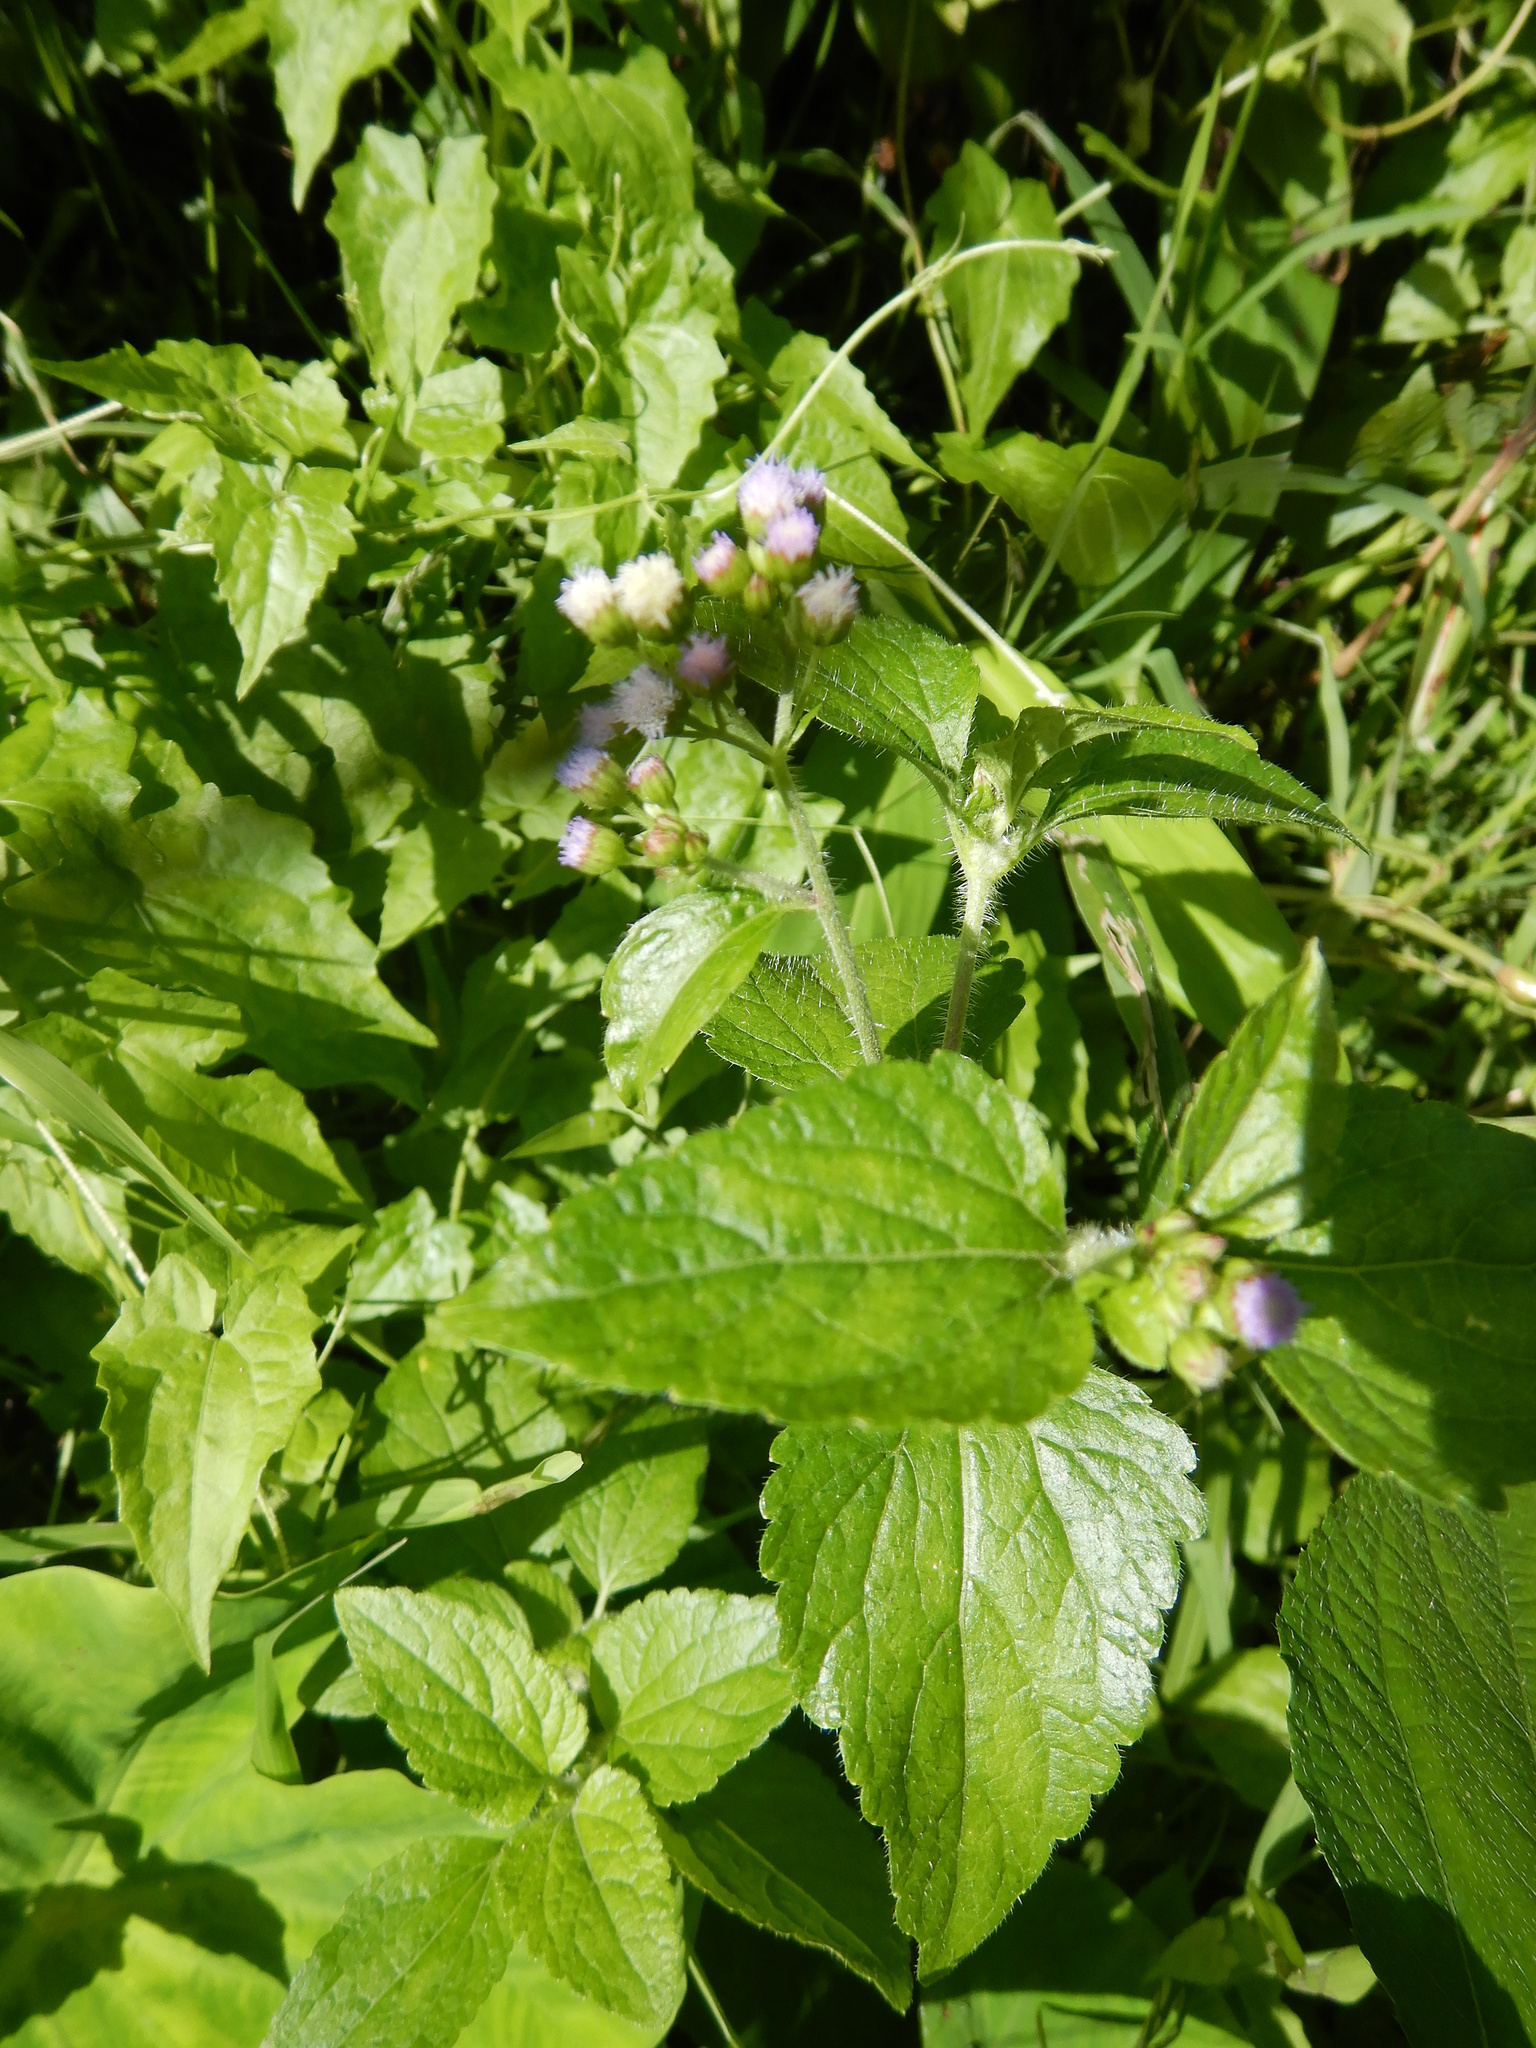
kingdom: Plantae
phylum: Tracheophyta
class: Magnoliopsida
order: Asterales
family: Asteraceae
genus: Ageratum
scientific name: Ageratum conyzoides
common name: Tropical whiteweed
